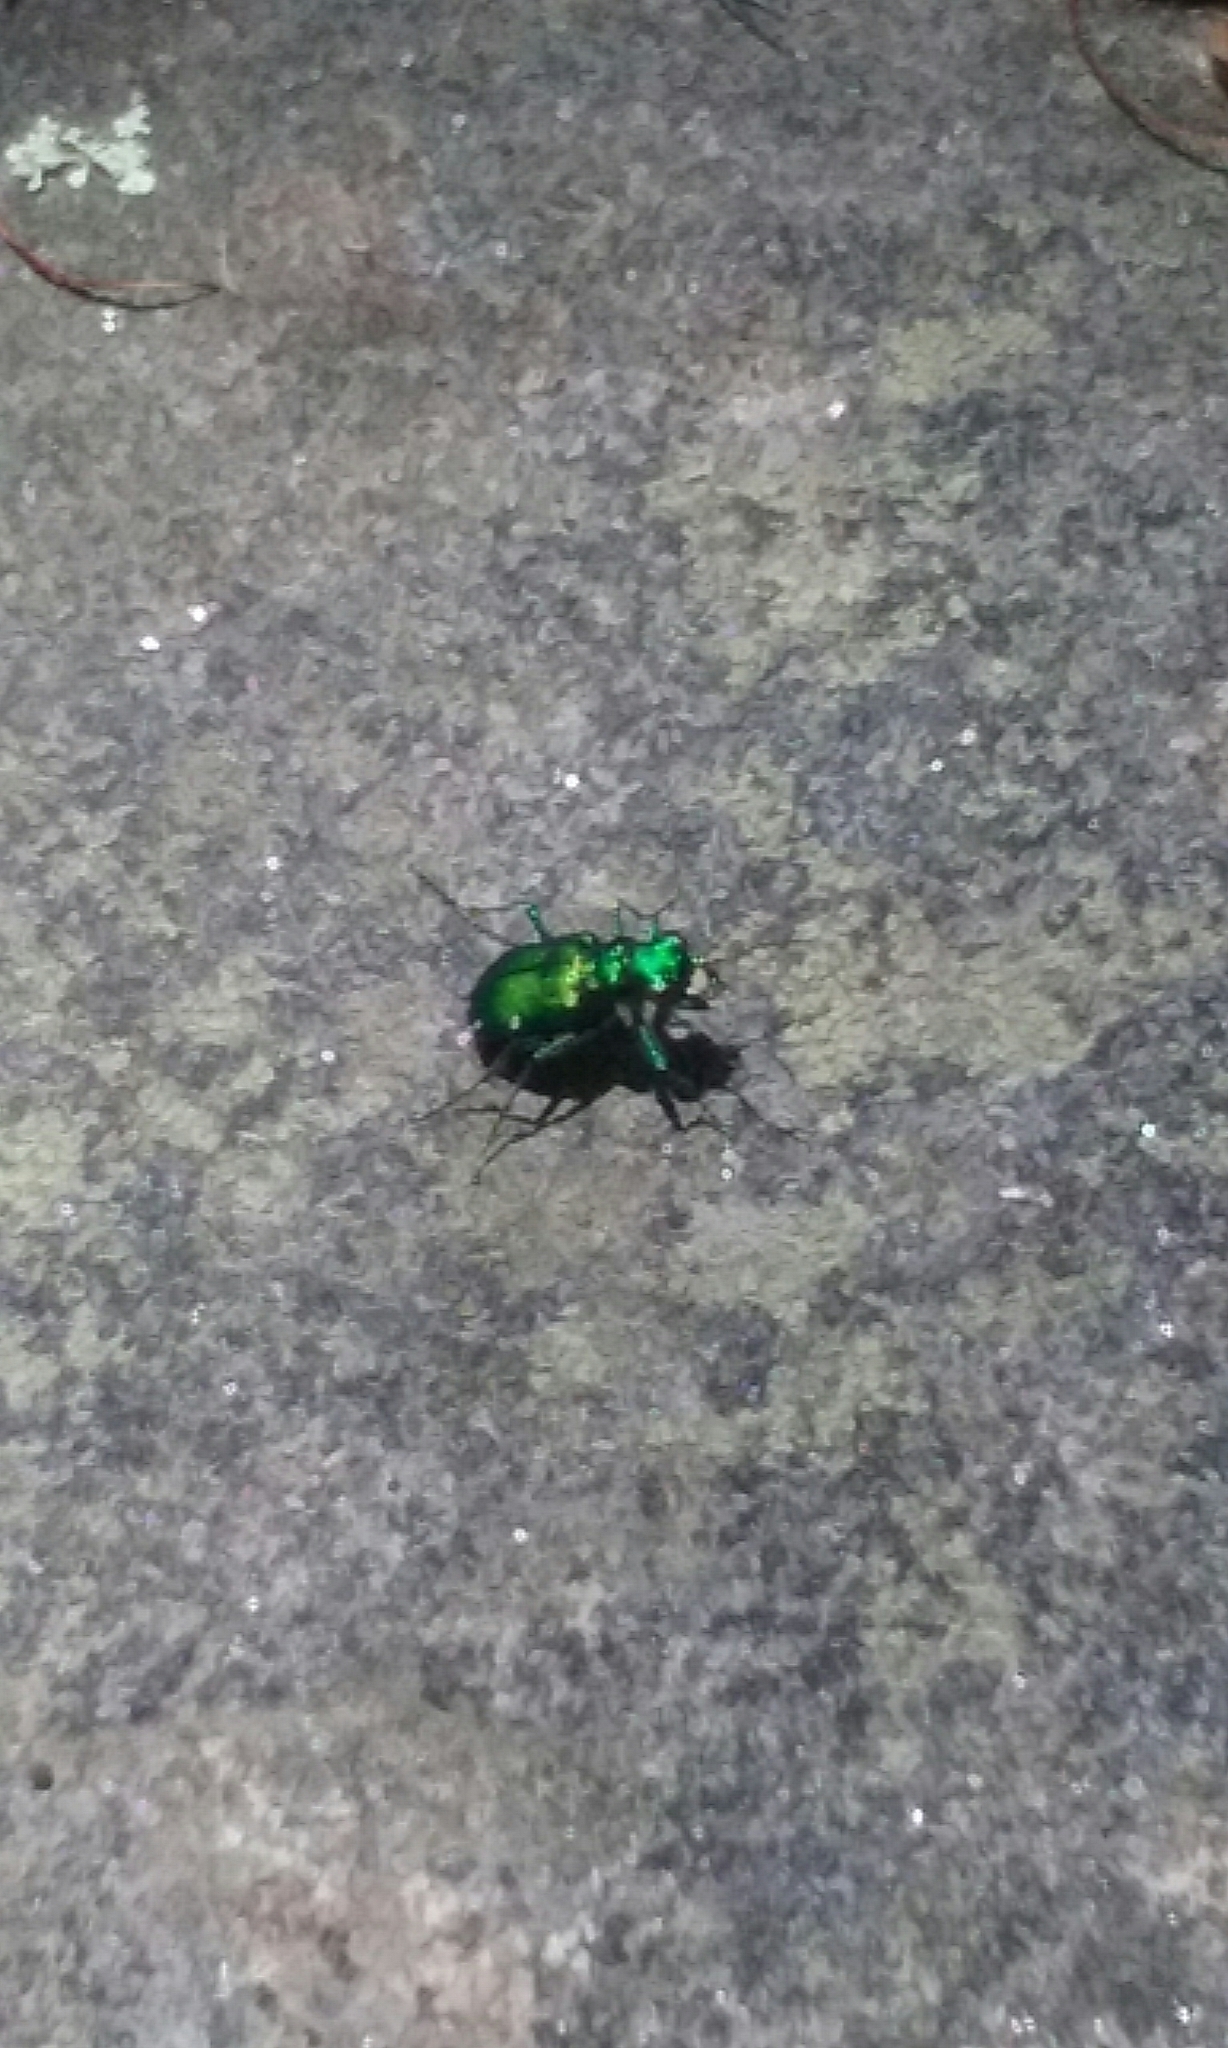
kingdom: Animalia
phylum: Arthropoda
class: Insecta
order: Coleoptera
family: Carabidae
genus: Cicindela
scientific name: Cicindela sexguttata
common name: Six-spotted tiger beetle
